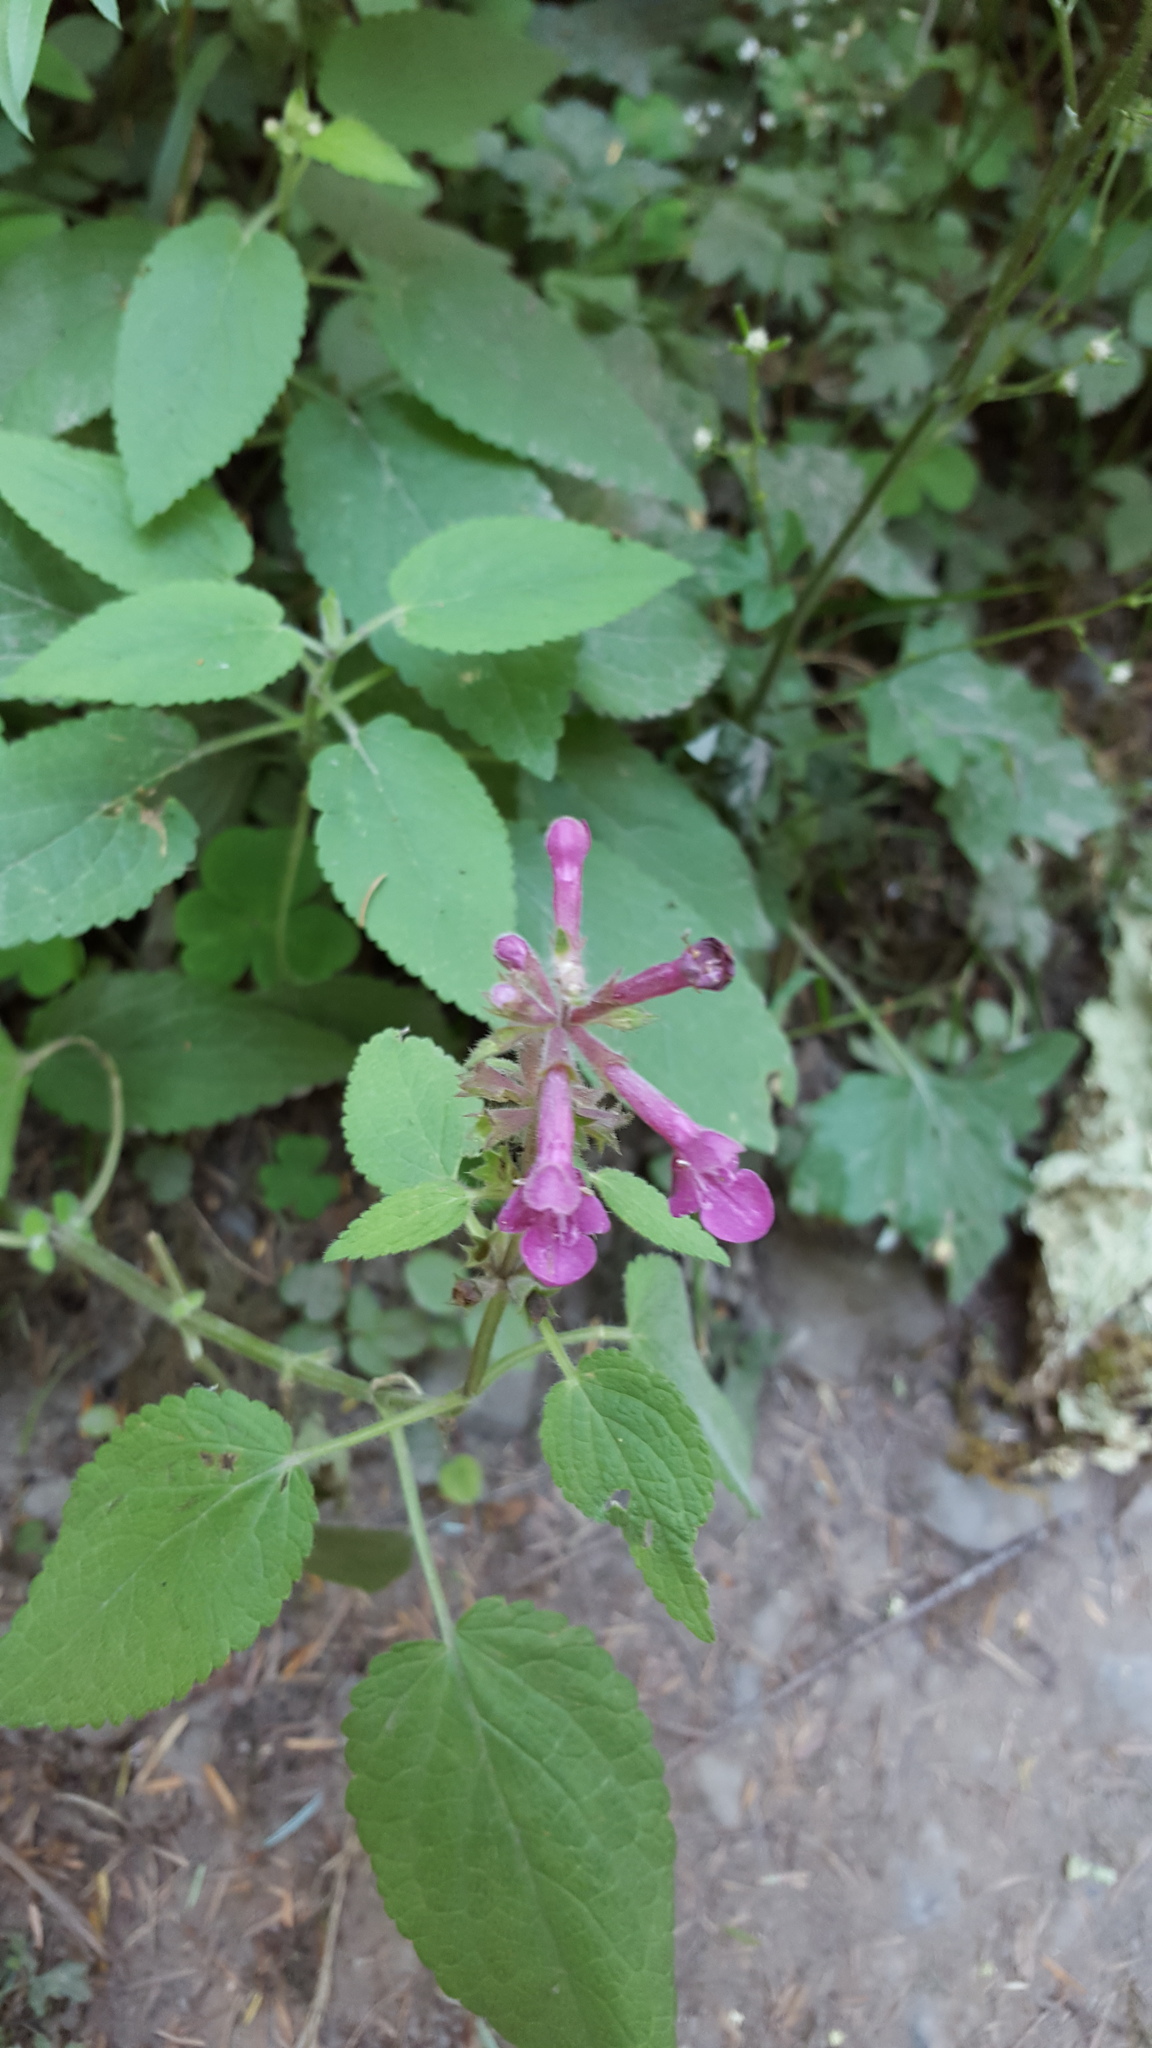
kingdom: Plantae
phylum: Tracheophyta
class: Magnoliopsida
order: Lamiales
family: Lamiaceae
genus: Stachys
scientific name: Stachys chamissonis
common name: Coastal hedge-nettle
